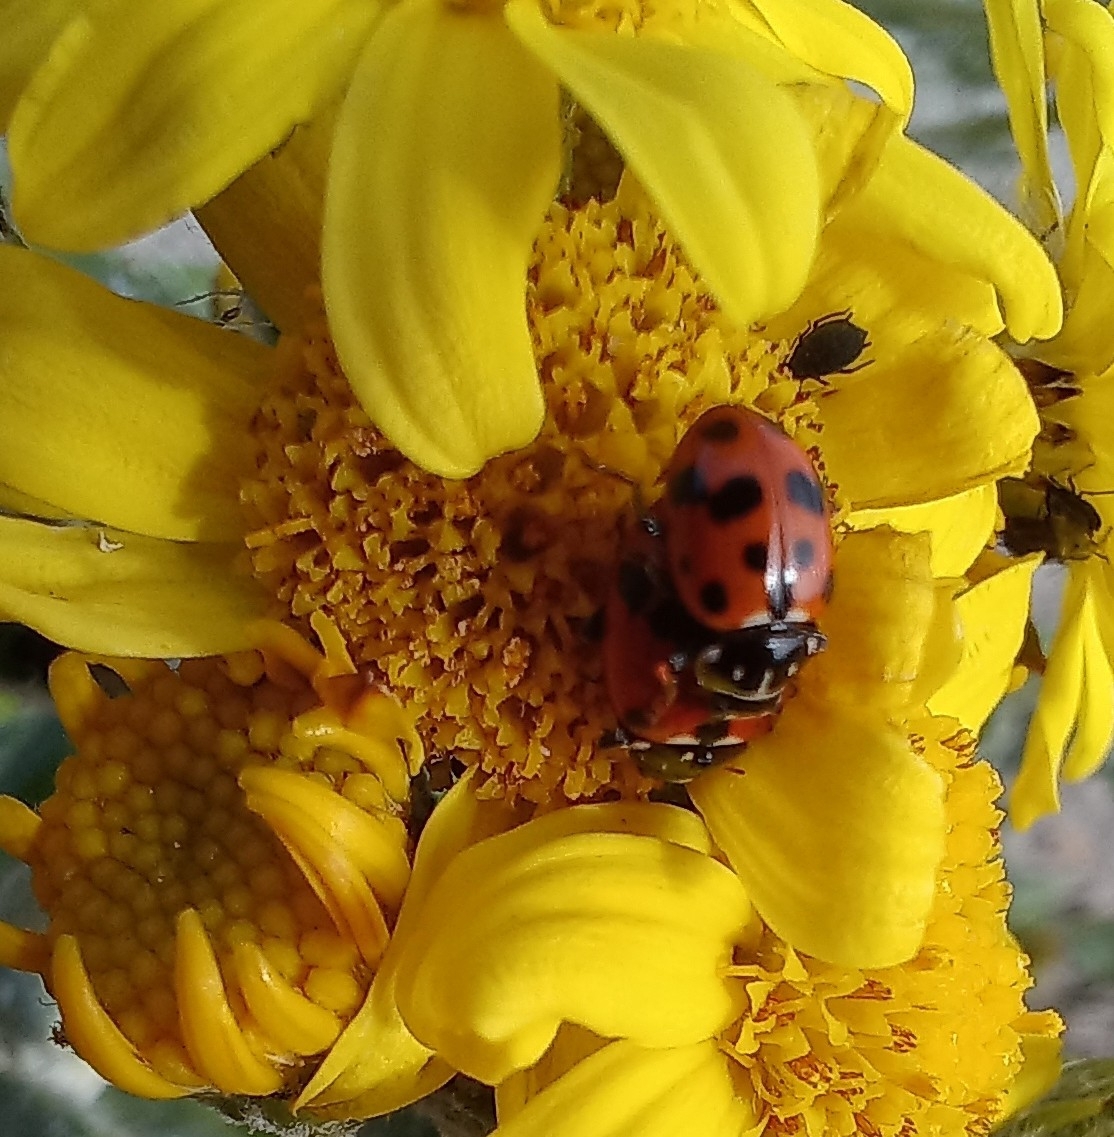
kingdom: Animalia
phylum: Arthropoda
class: Insecta
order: Coleoptera
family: Coccinellidae
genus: Hippodamia
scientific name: Hippodamia variegata
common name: Ladybird beetle
